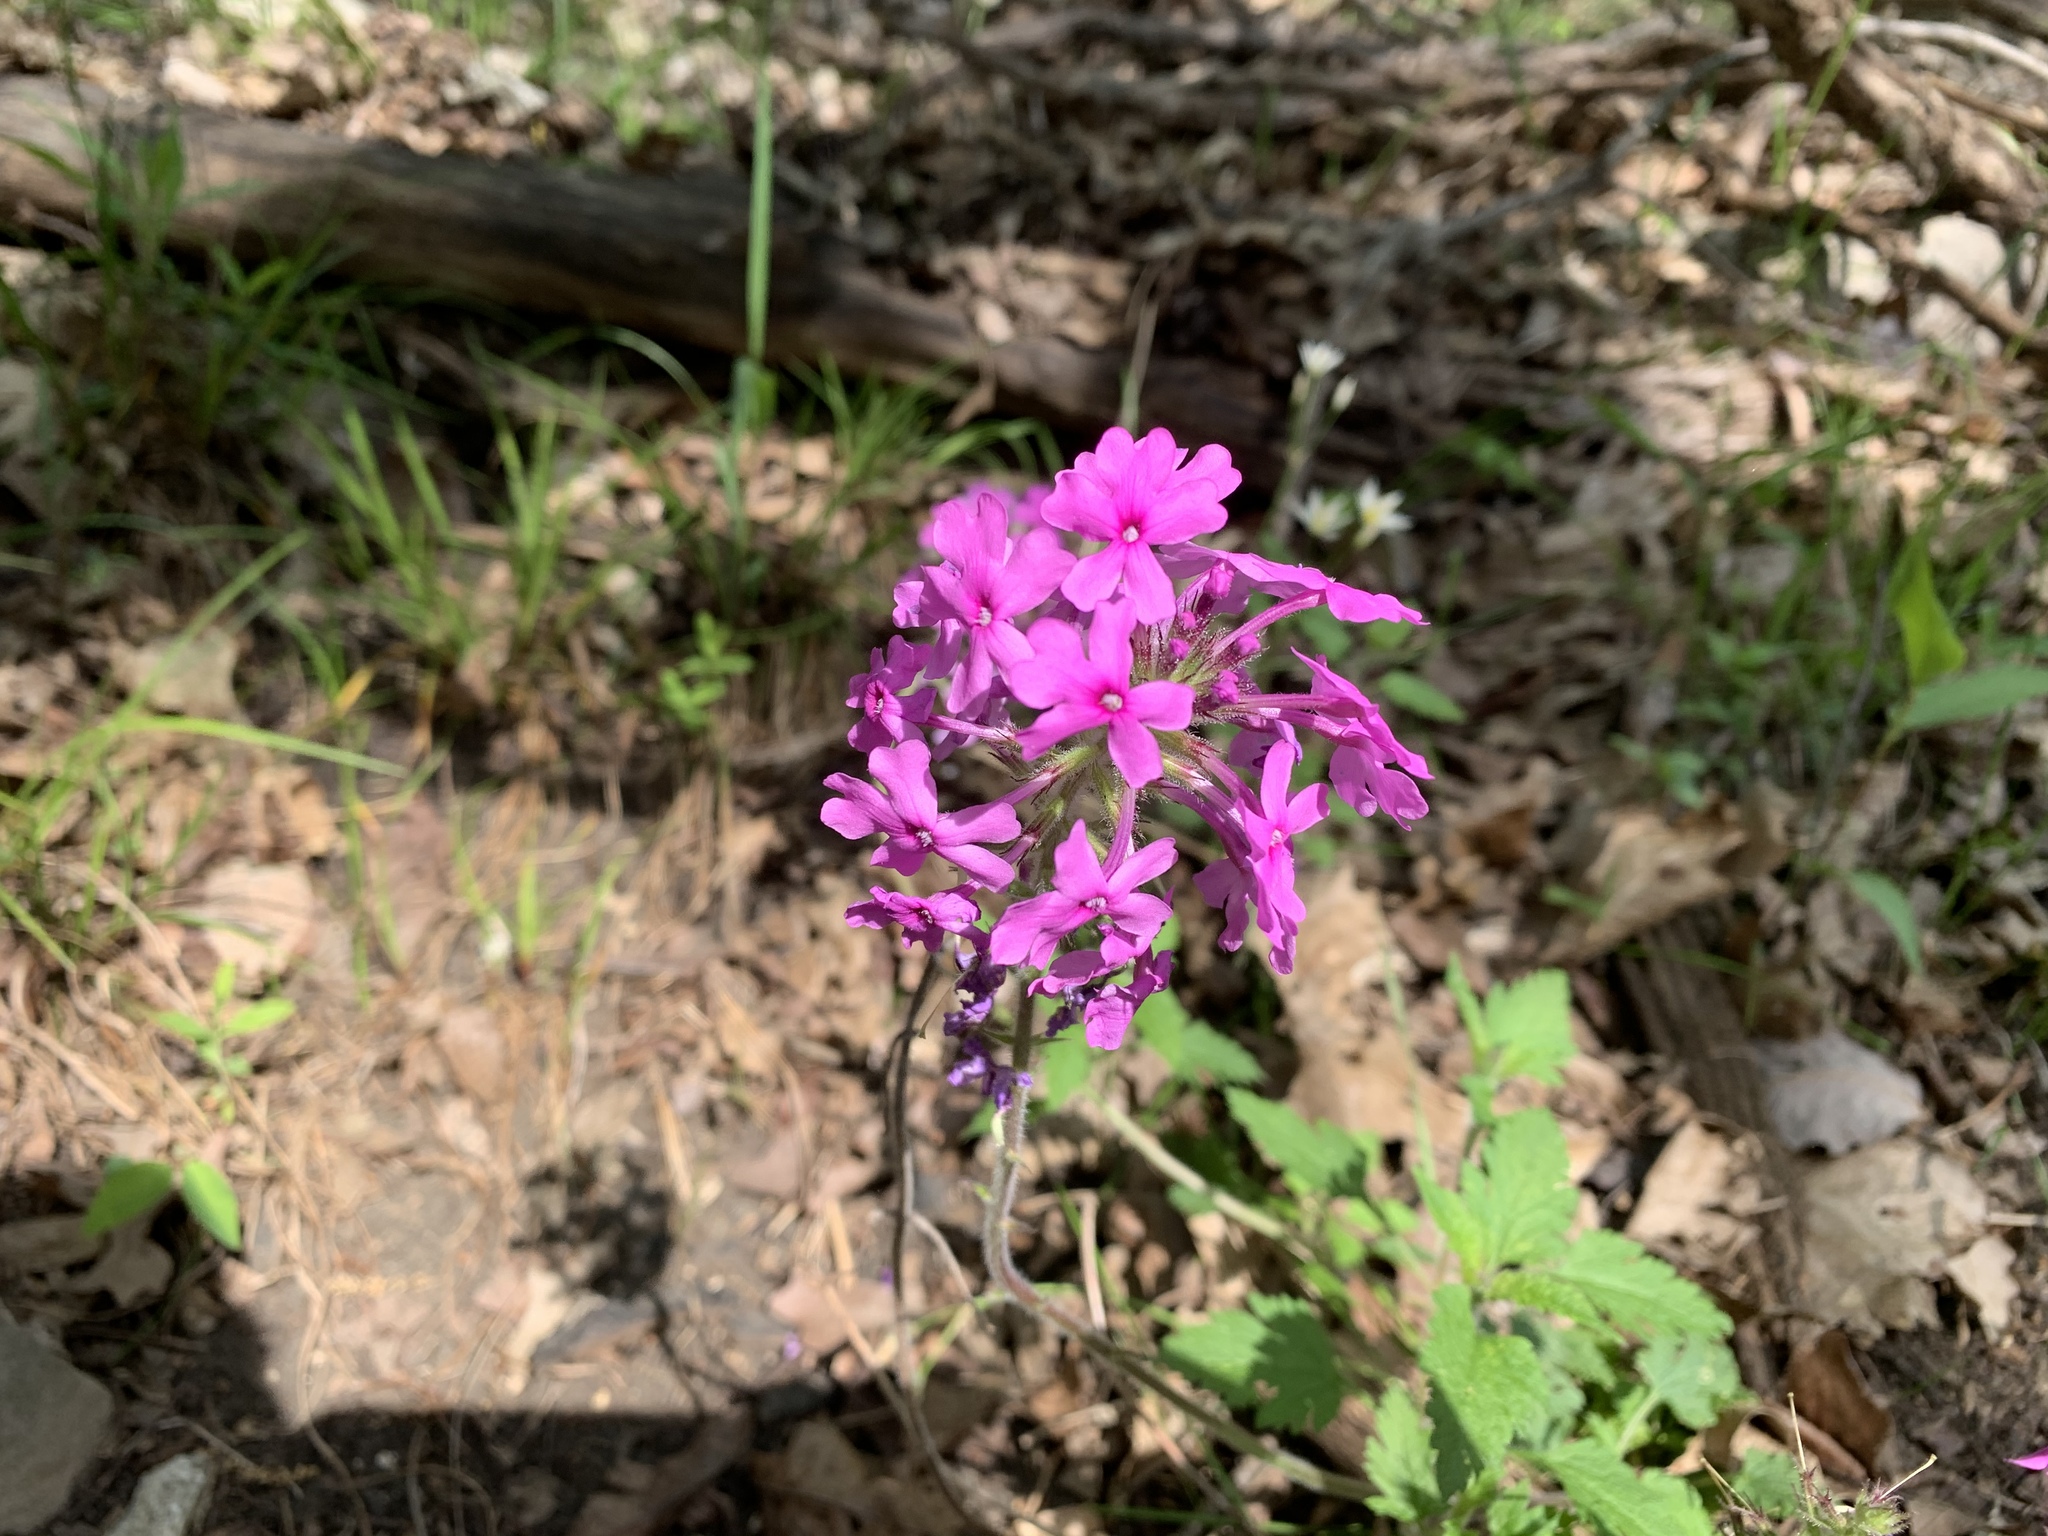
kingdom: Plantae
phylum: Tracheophyta
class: Magnoliopsida
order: Lamiales
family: Verbenaceae
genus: Verbena
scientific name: Verbena canadensis
